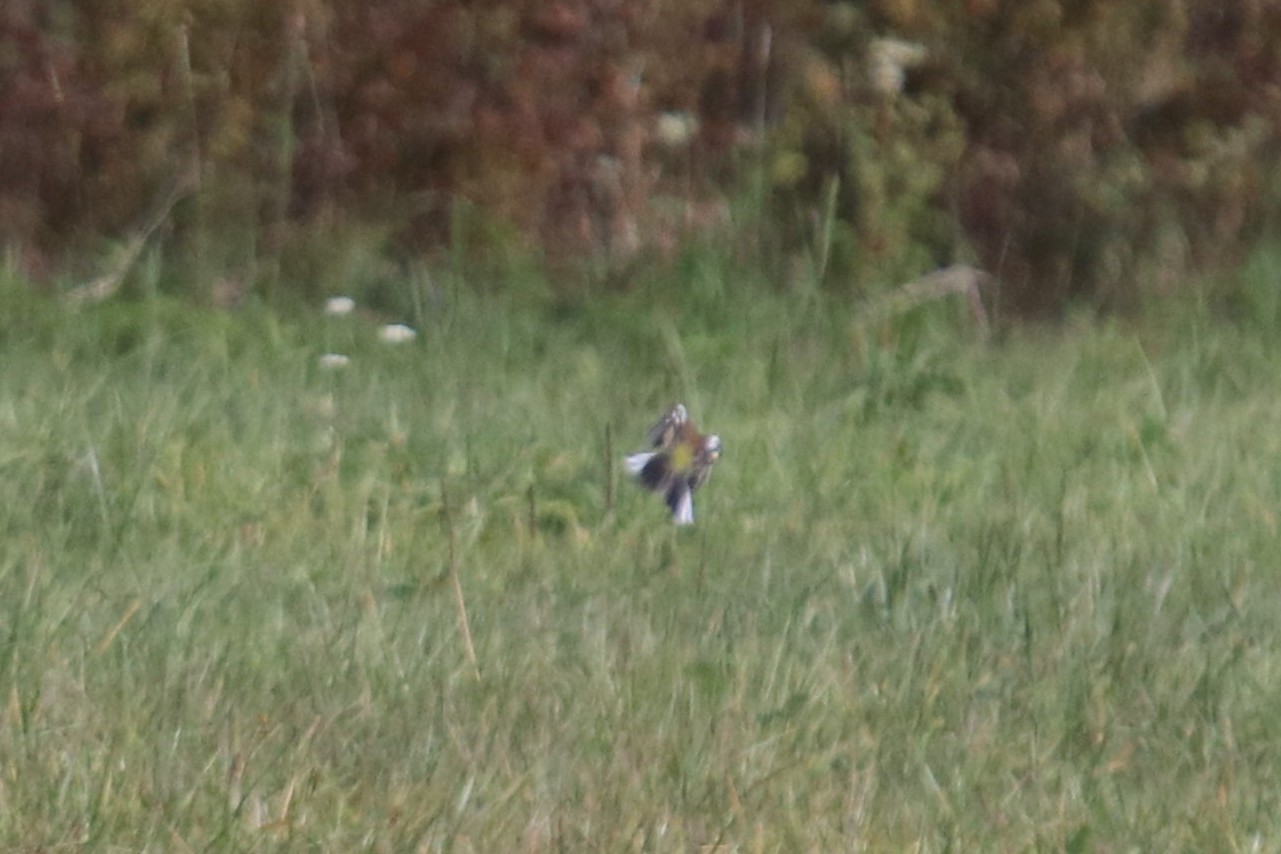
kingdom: Animalia
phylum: Chordata
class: Aves
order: Passeriformes
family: Fringillidae
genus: Fringilla
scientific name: Fringilla coelebs
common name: Common chaffinch
